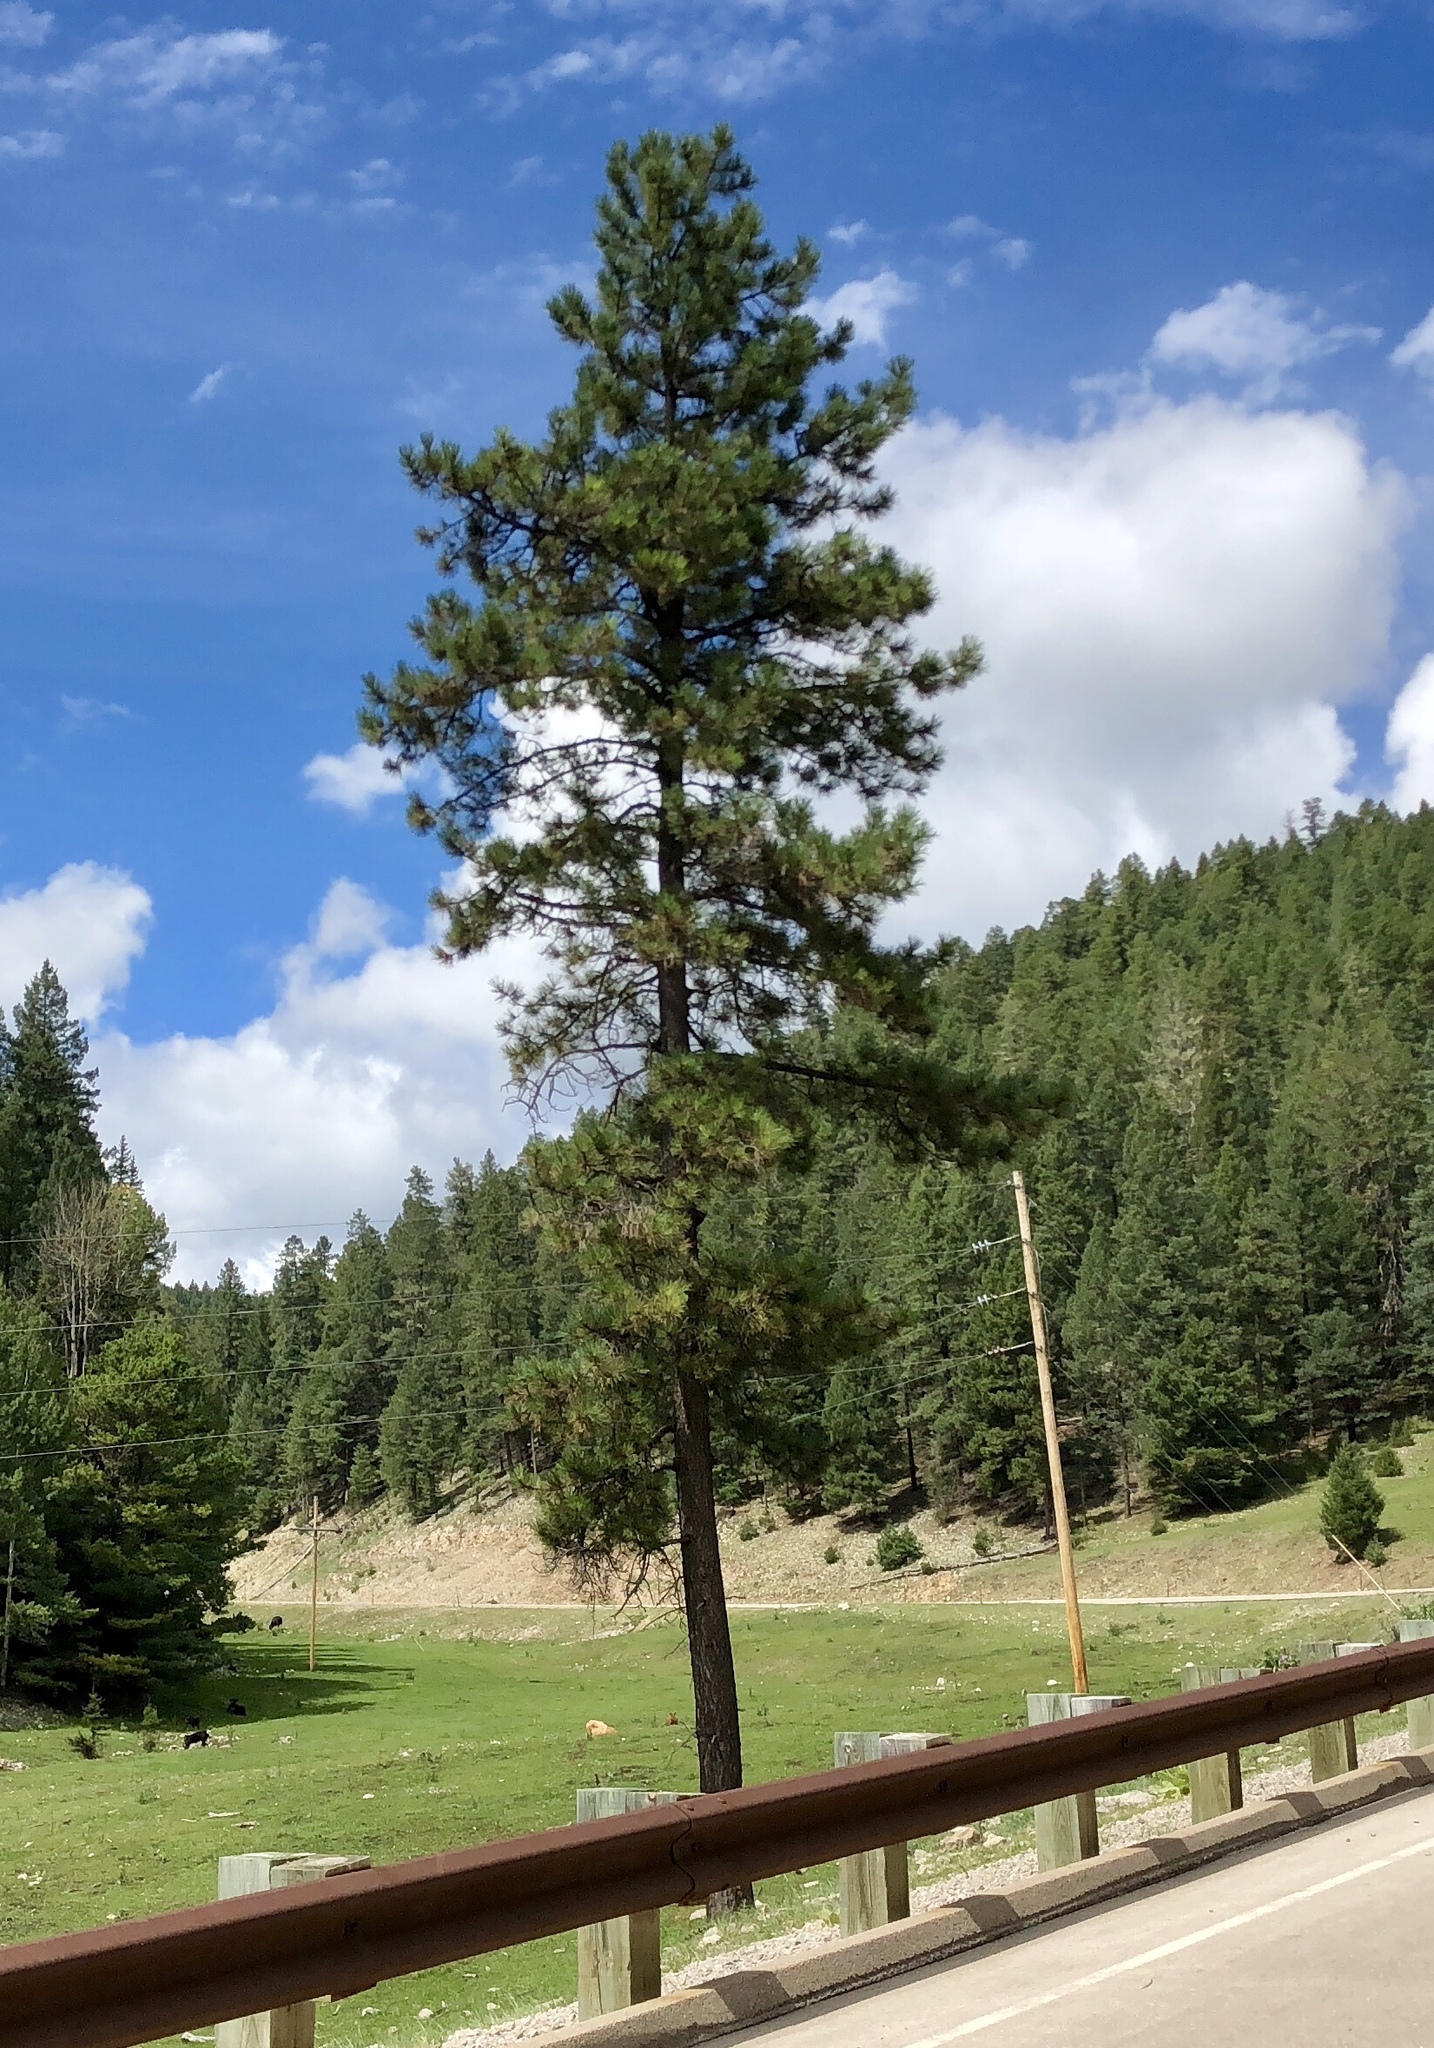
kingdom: Plantae
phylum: Tracheophyta
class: Pinopsida
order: Pinales
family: Pinaceae
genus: Pinus
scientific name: Pinus ponderosa
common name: Western yellow-pine
